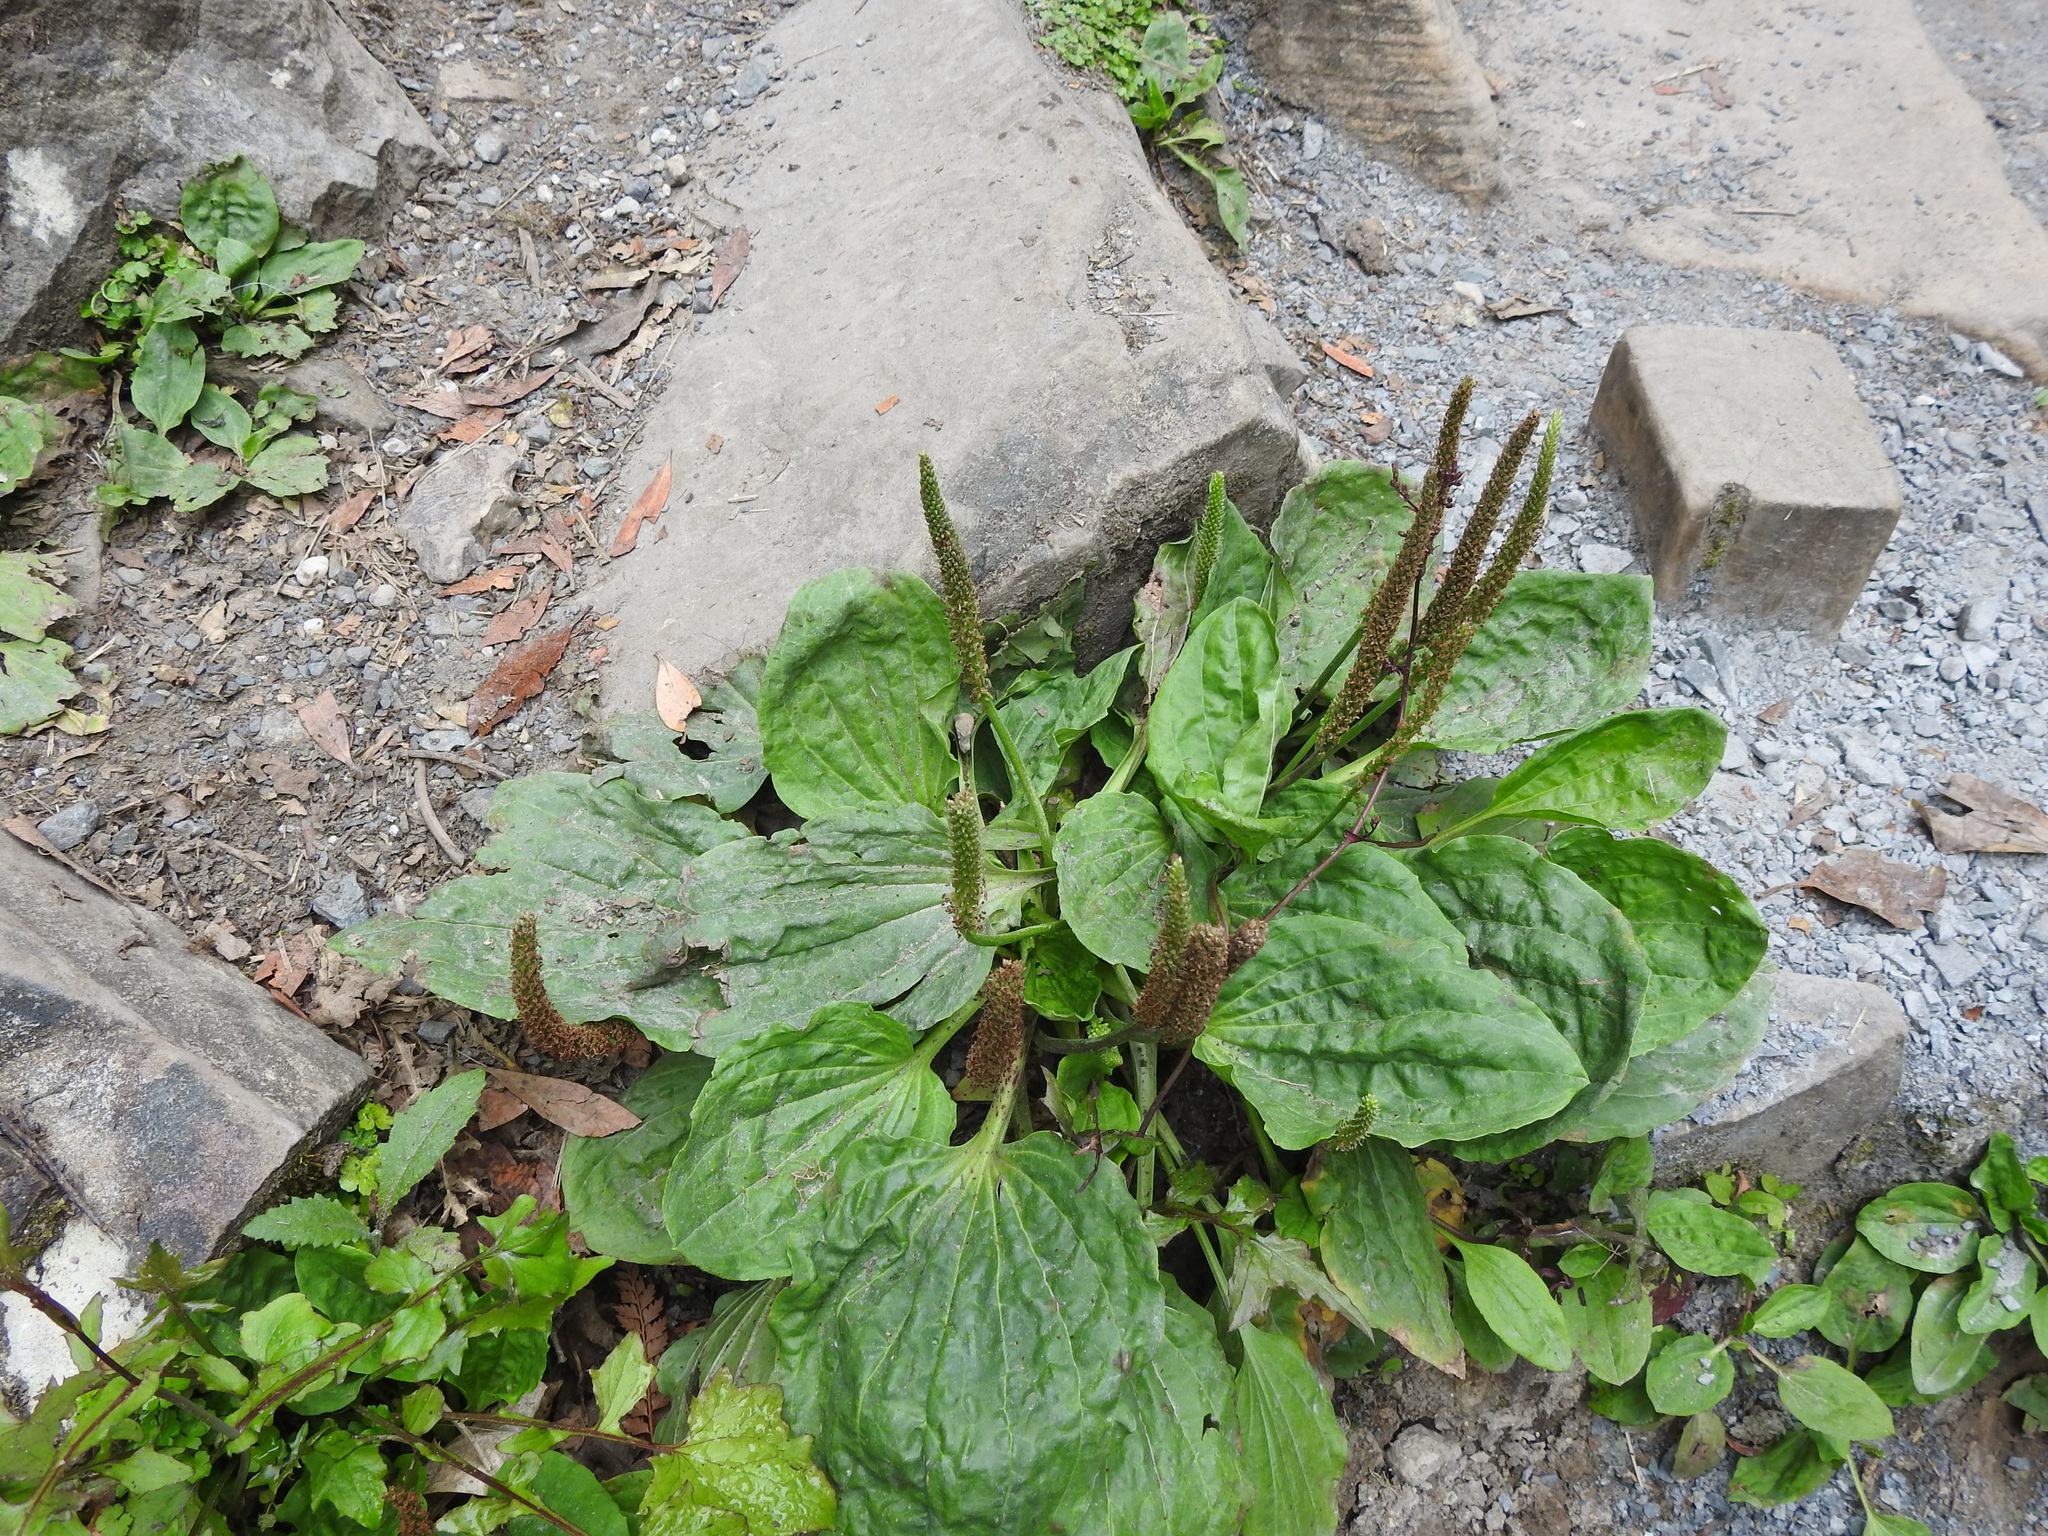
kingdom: Plantae
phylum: Tracheophyta
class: Magnoliopsida
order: Lamiales
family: Plantaginaceae
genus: Plantago
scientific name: Plantago major
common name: Common plantain
